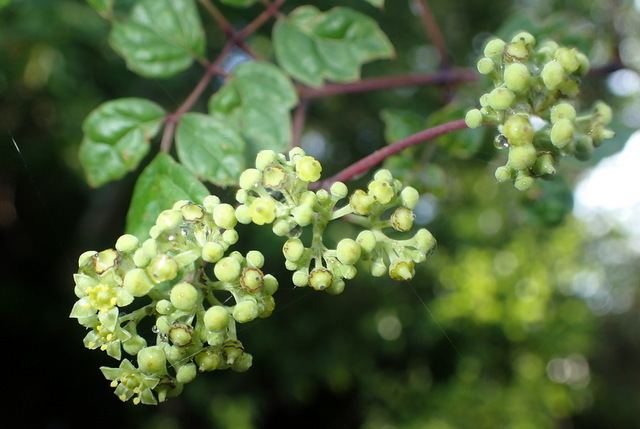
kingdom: Plantae
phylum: Tracheophyta
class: Magnoliopsida
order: Vitales
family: Vitaceae
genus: Nekemias
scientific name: Nekemias arborea
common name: Peppervine
